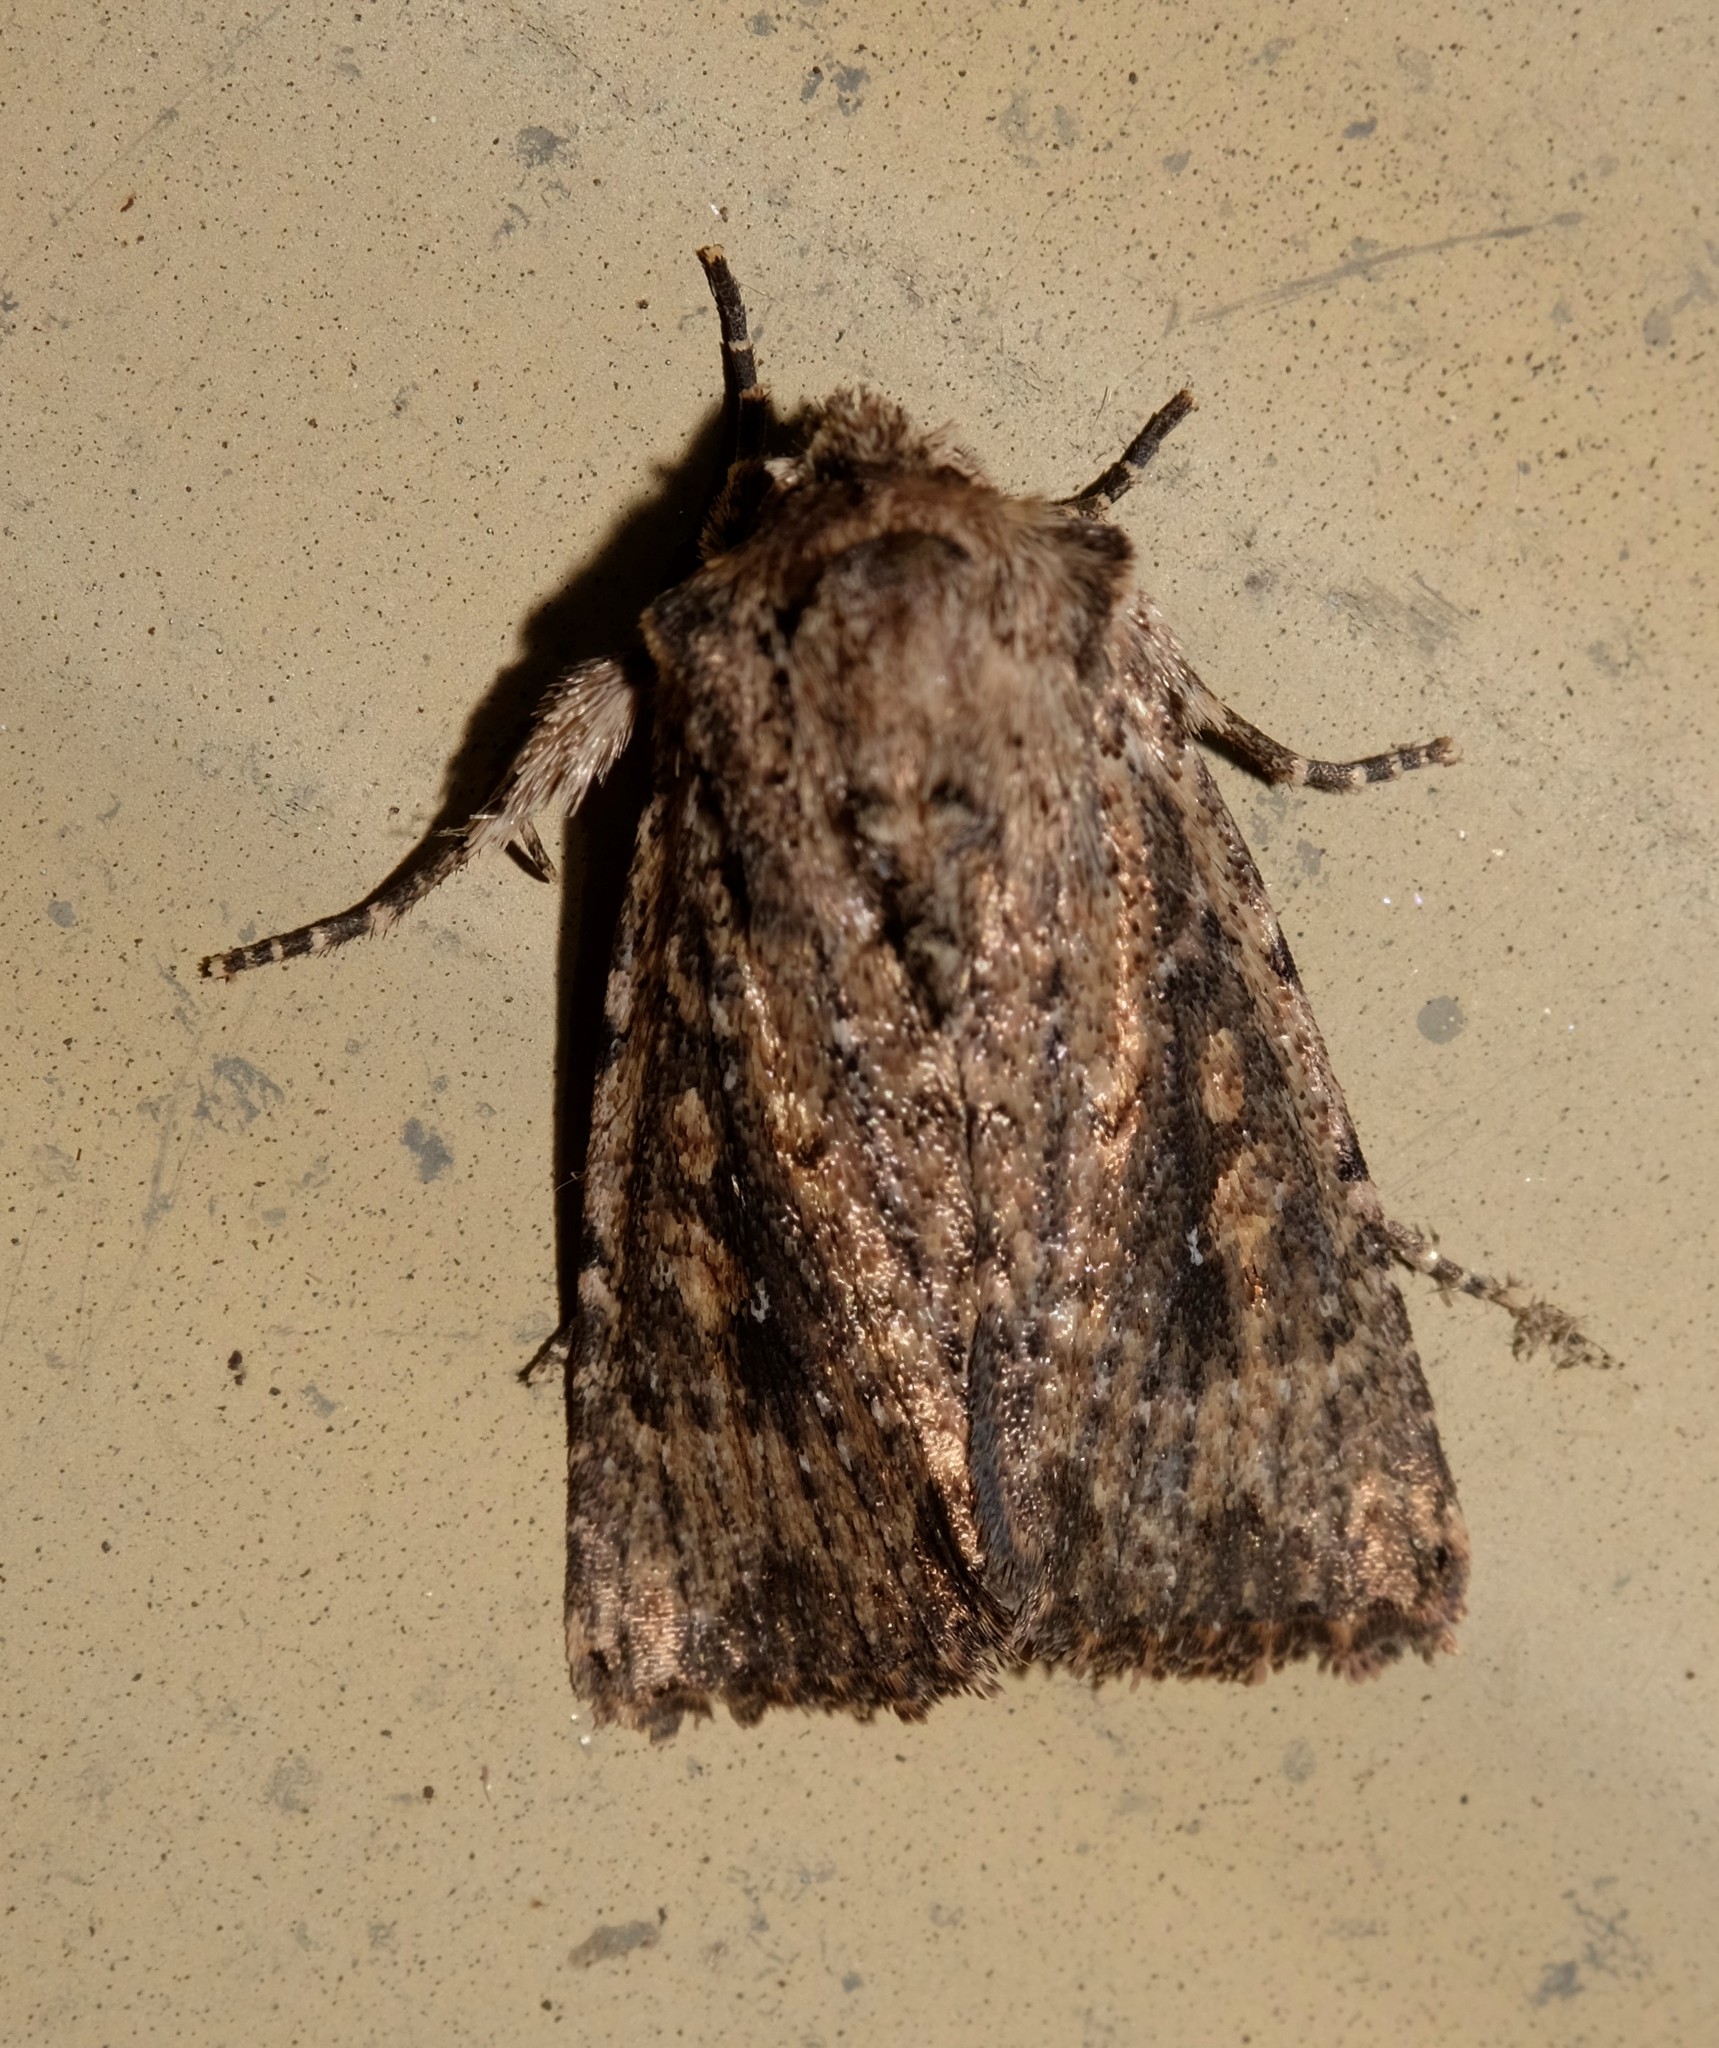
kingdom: Animalia
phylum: Arthropoda
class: Insecta
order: Lepidoptera
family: Noctuidae
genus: Dasygaster
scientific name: Dasygaster padockina
